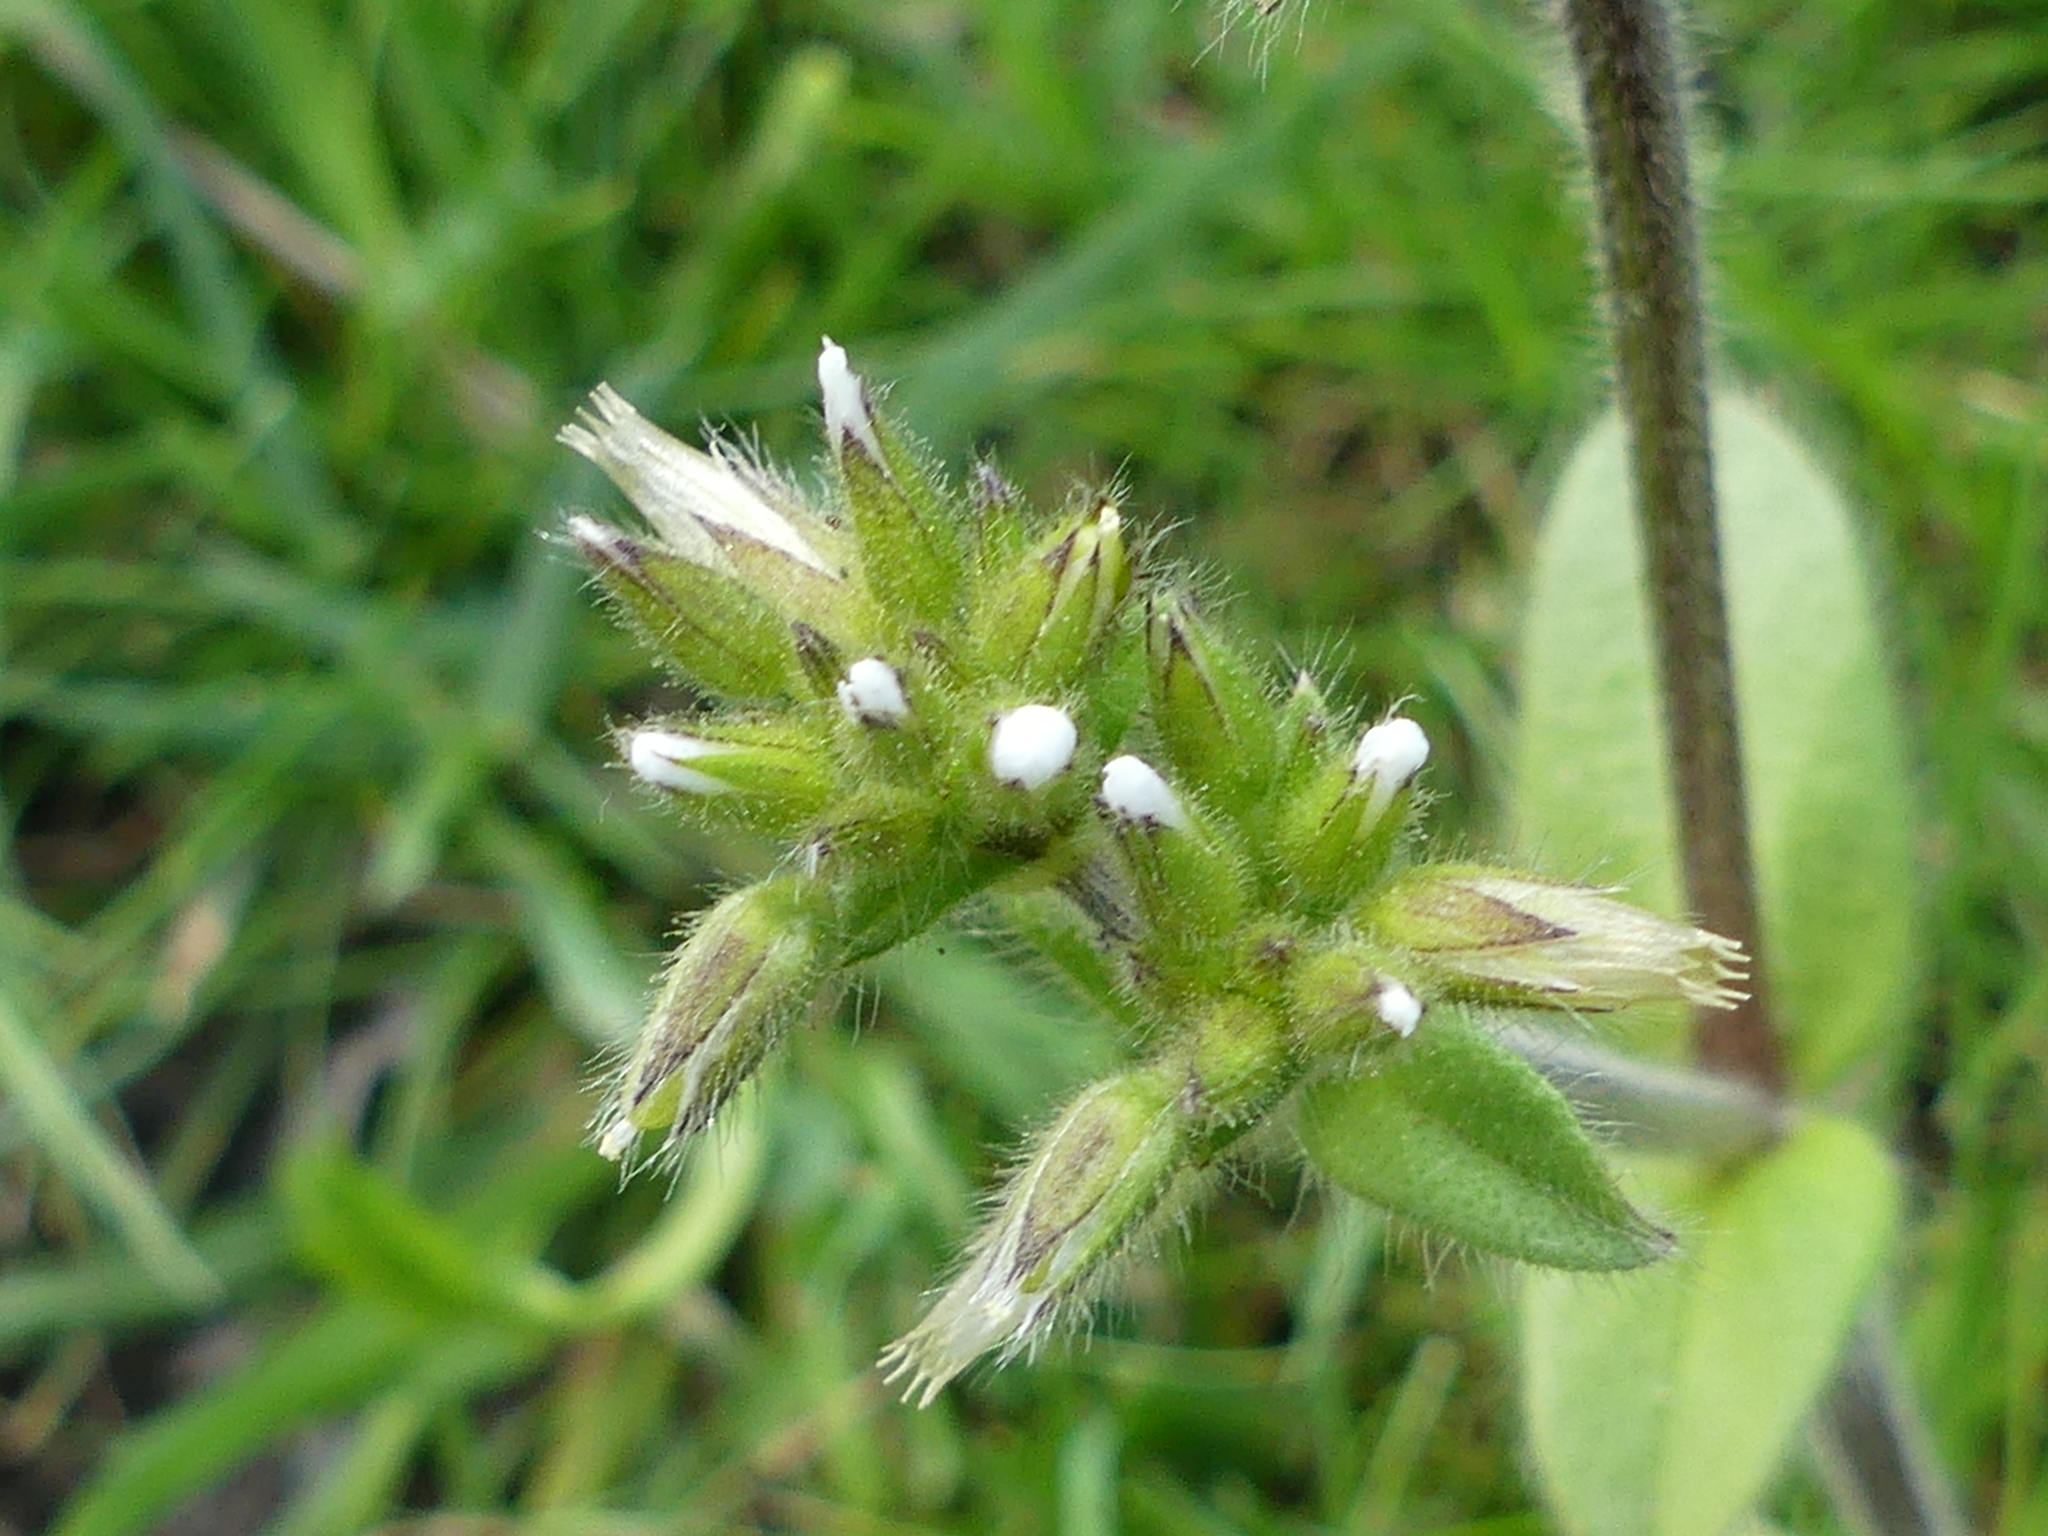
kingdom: Plantae
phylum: Tracheophyta
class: Magnoliopsida
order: Caryophyllales
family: Caryophyllaceae
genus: Cerastium
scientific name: Cerastium glomeratum
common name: Sticky chickweed
